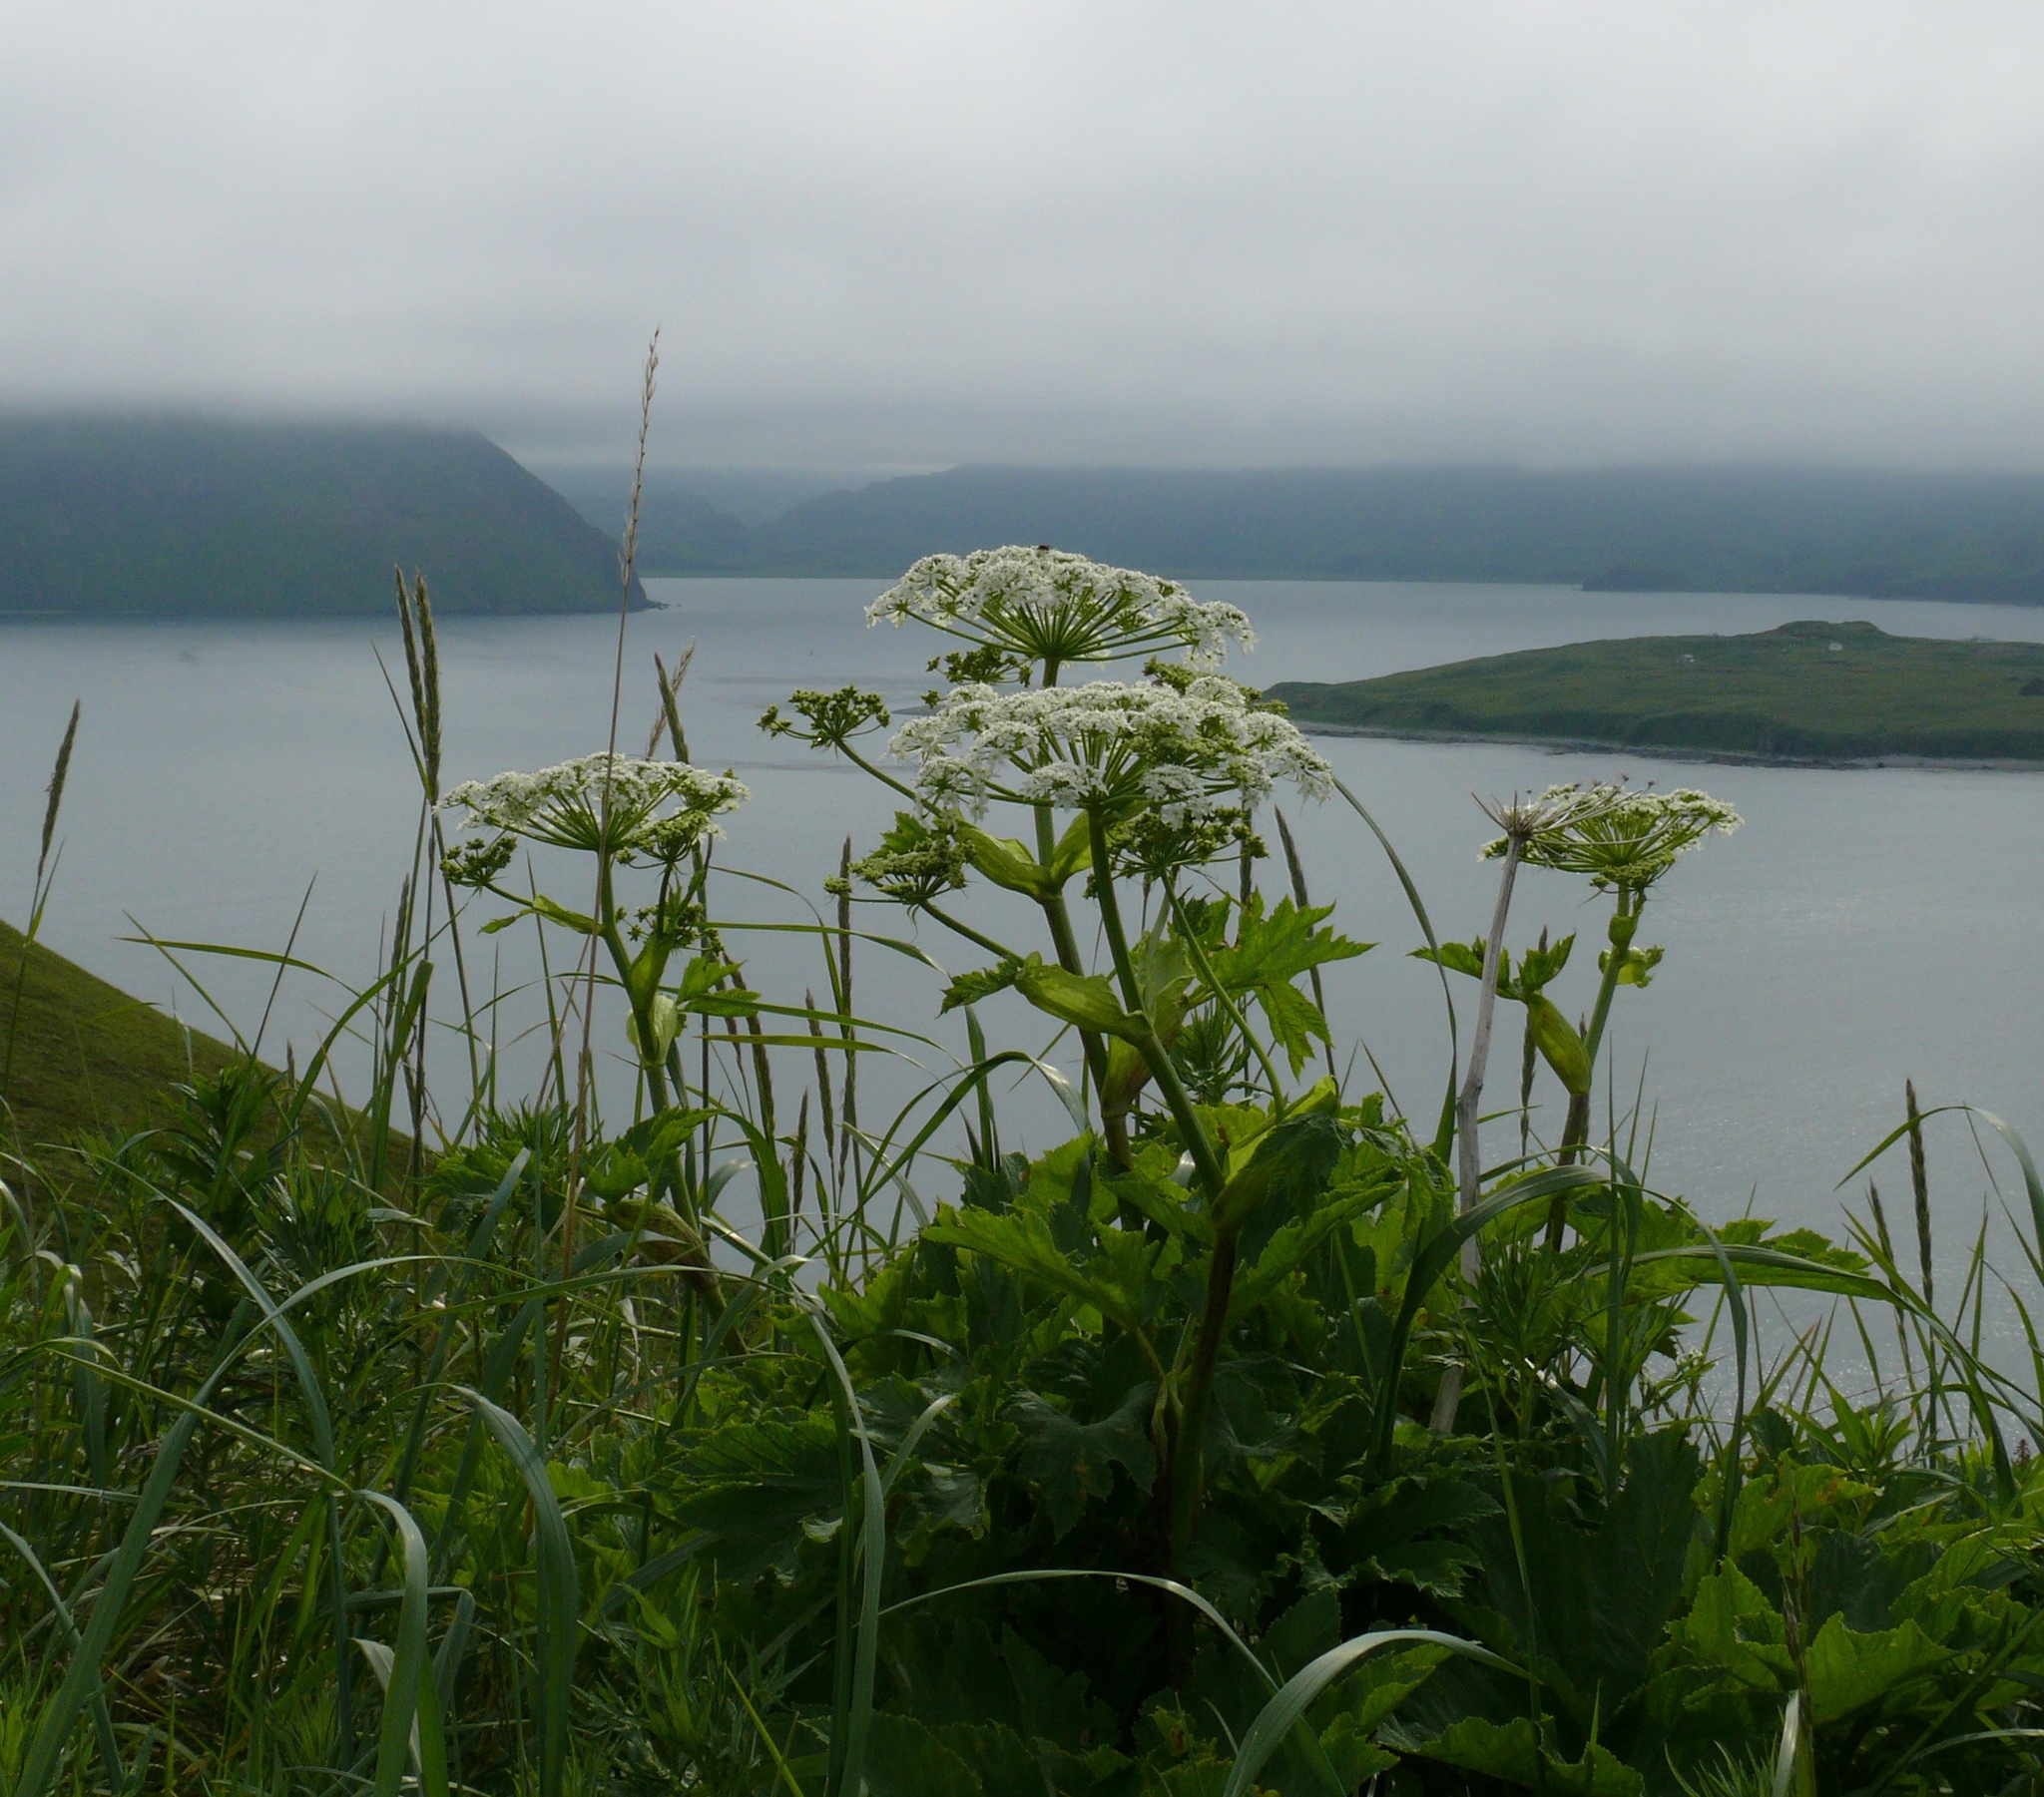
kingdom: Plantae
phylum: Tracheophyta
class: Magnoliopsida
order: Apiales
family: Apiaceae
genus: Heracleum
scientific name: Heracleum maximum
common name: American cow parsnip
